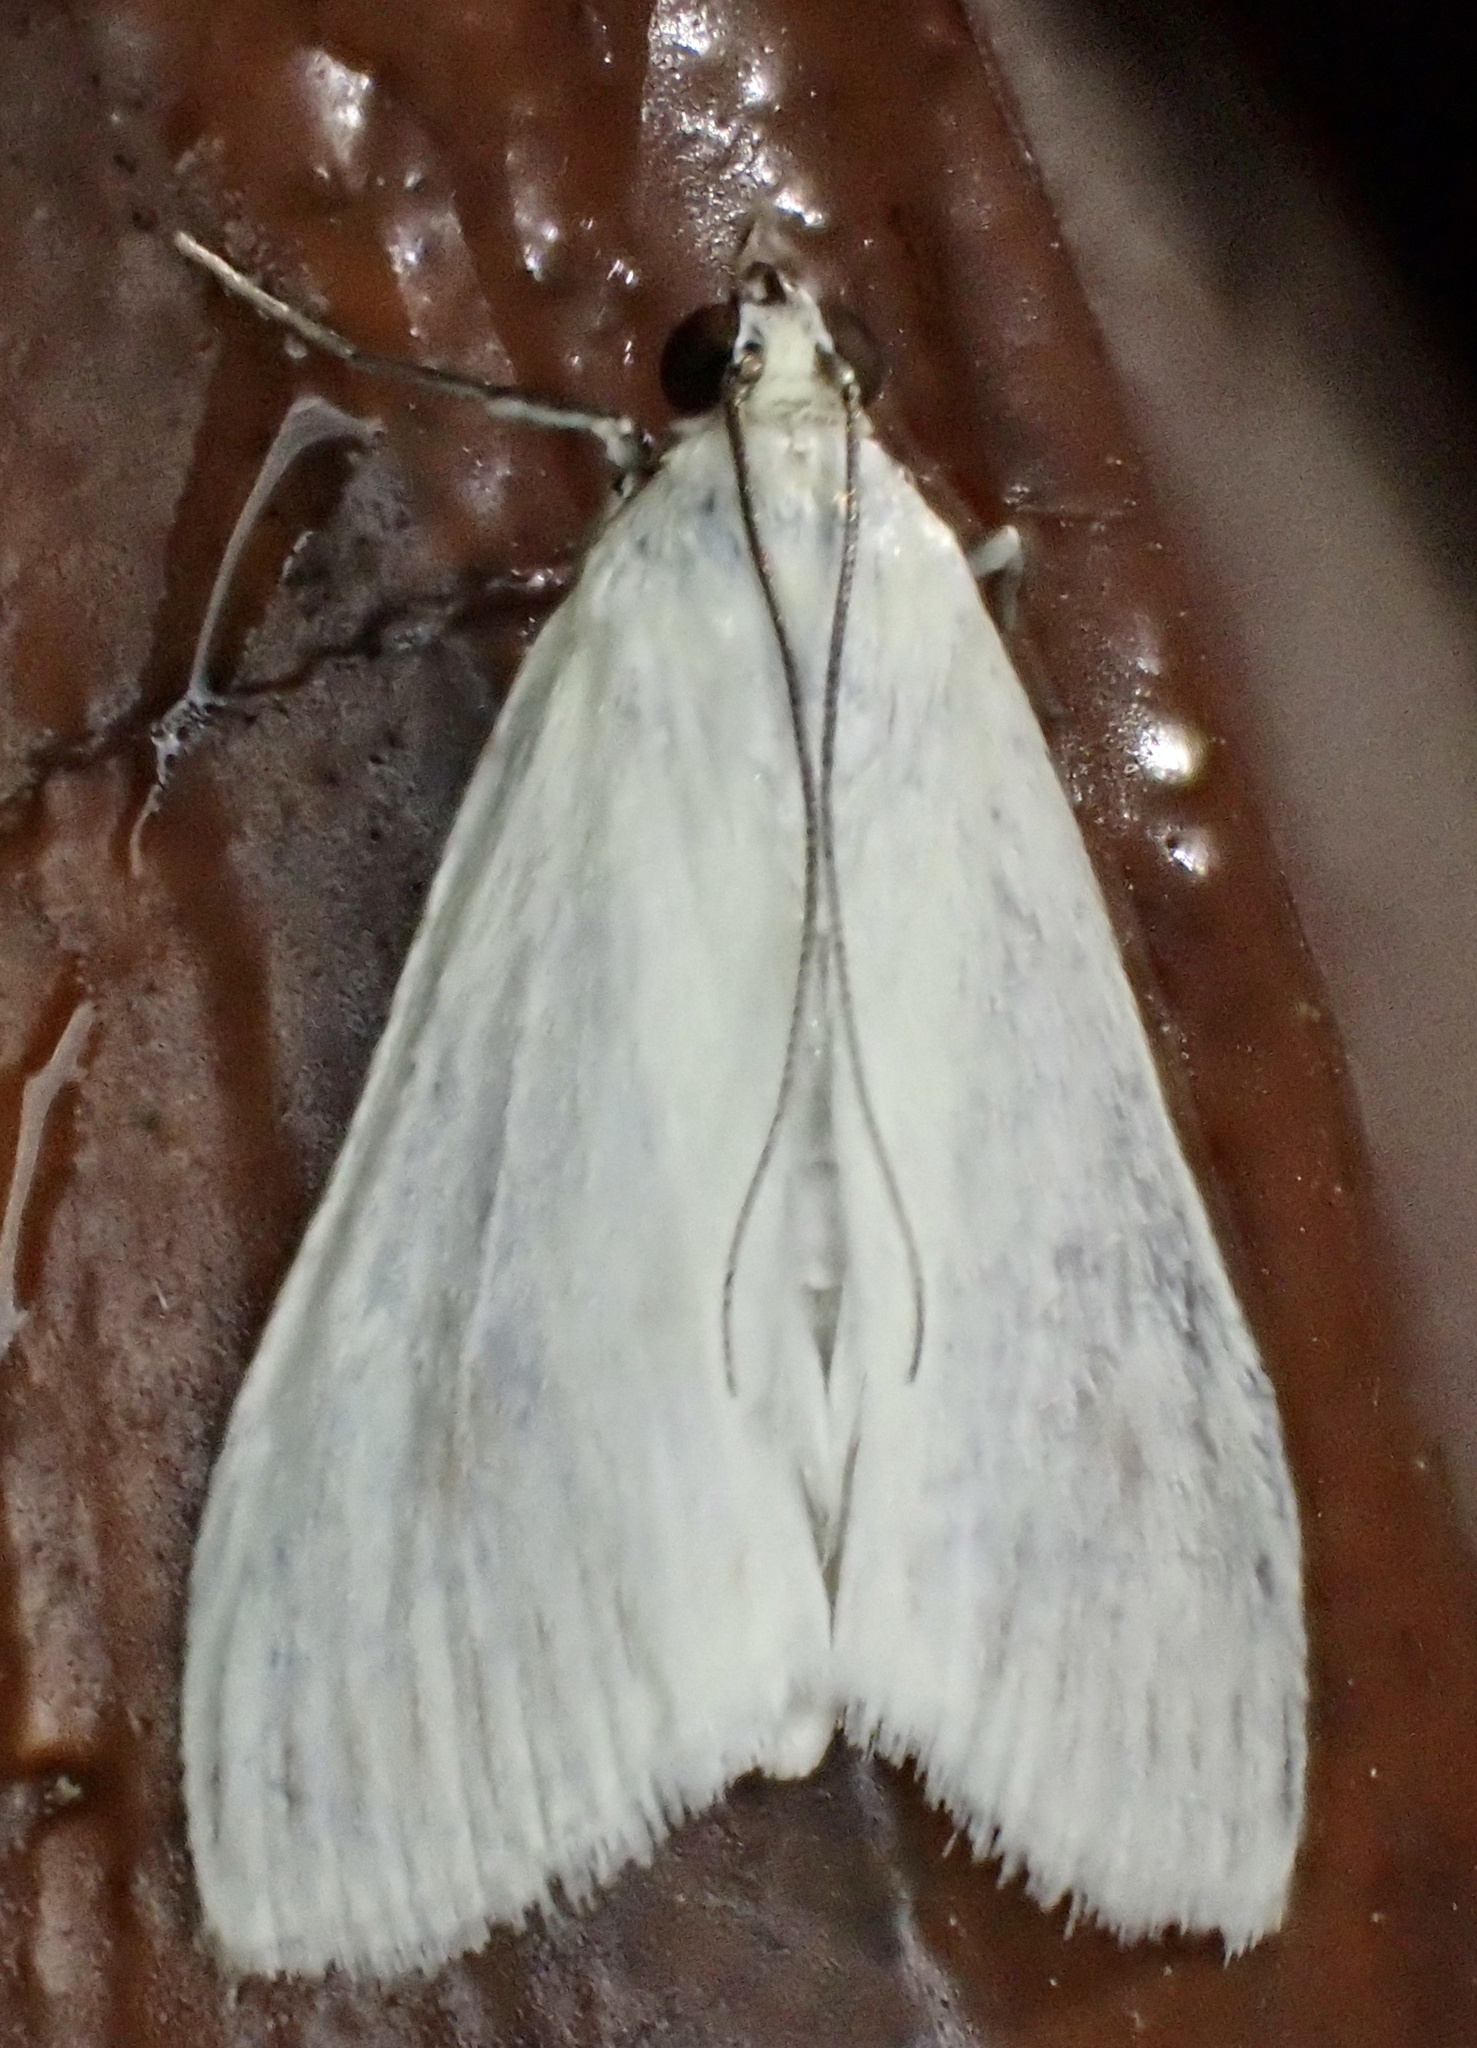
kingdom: Animalia
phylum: Arthropoda
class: Insecta
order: Lepidoptera
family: Crambidae
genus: Sitochroa
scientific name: Sitochroa palealis
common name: Greenish-yellow sitochroa moth
